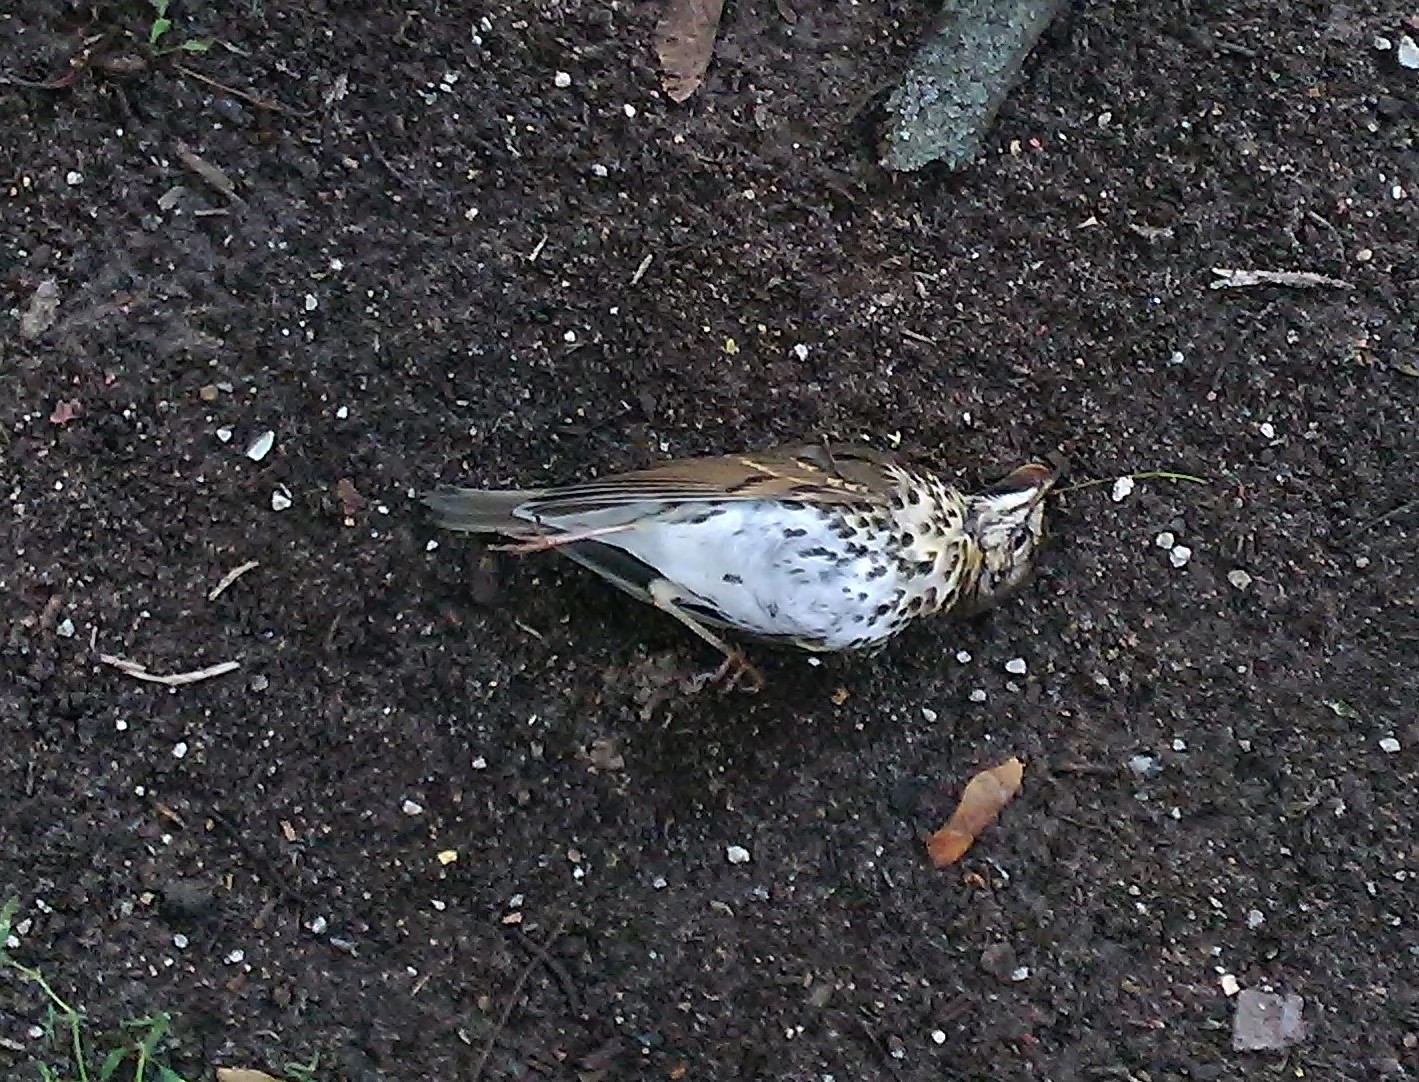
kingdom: Animalia
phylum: Chordata
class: Aves
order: Passeriformes
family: Turdidae
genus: Turdus
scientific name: Turdus philomelos
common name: Song thrush
